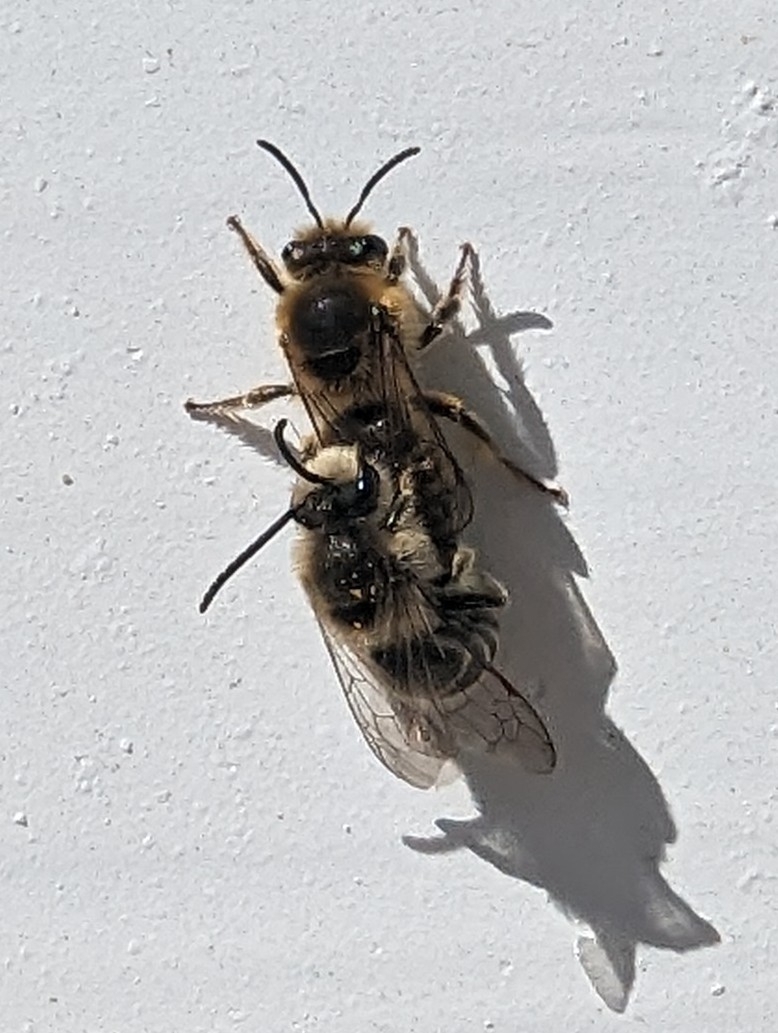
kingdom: Animalia
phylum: Arthropoda
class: Insecta
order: Hymenoptera
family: Colletidae
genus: Colletes
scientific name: Colletes inaequalis
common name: Unequal cellophane bee
